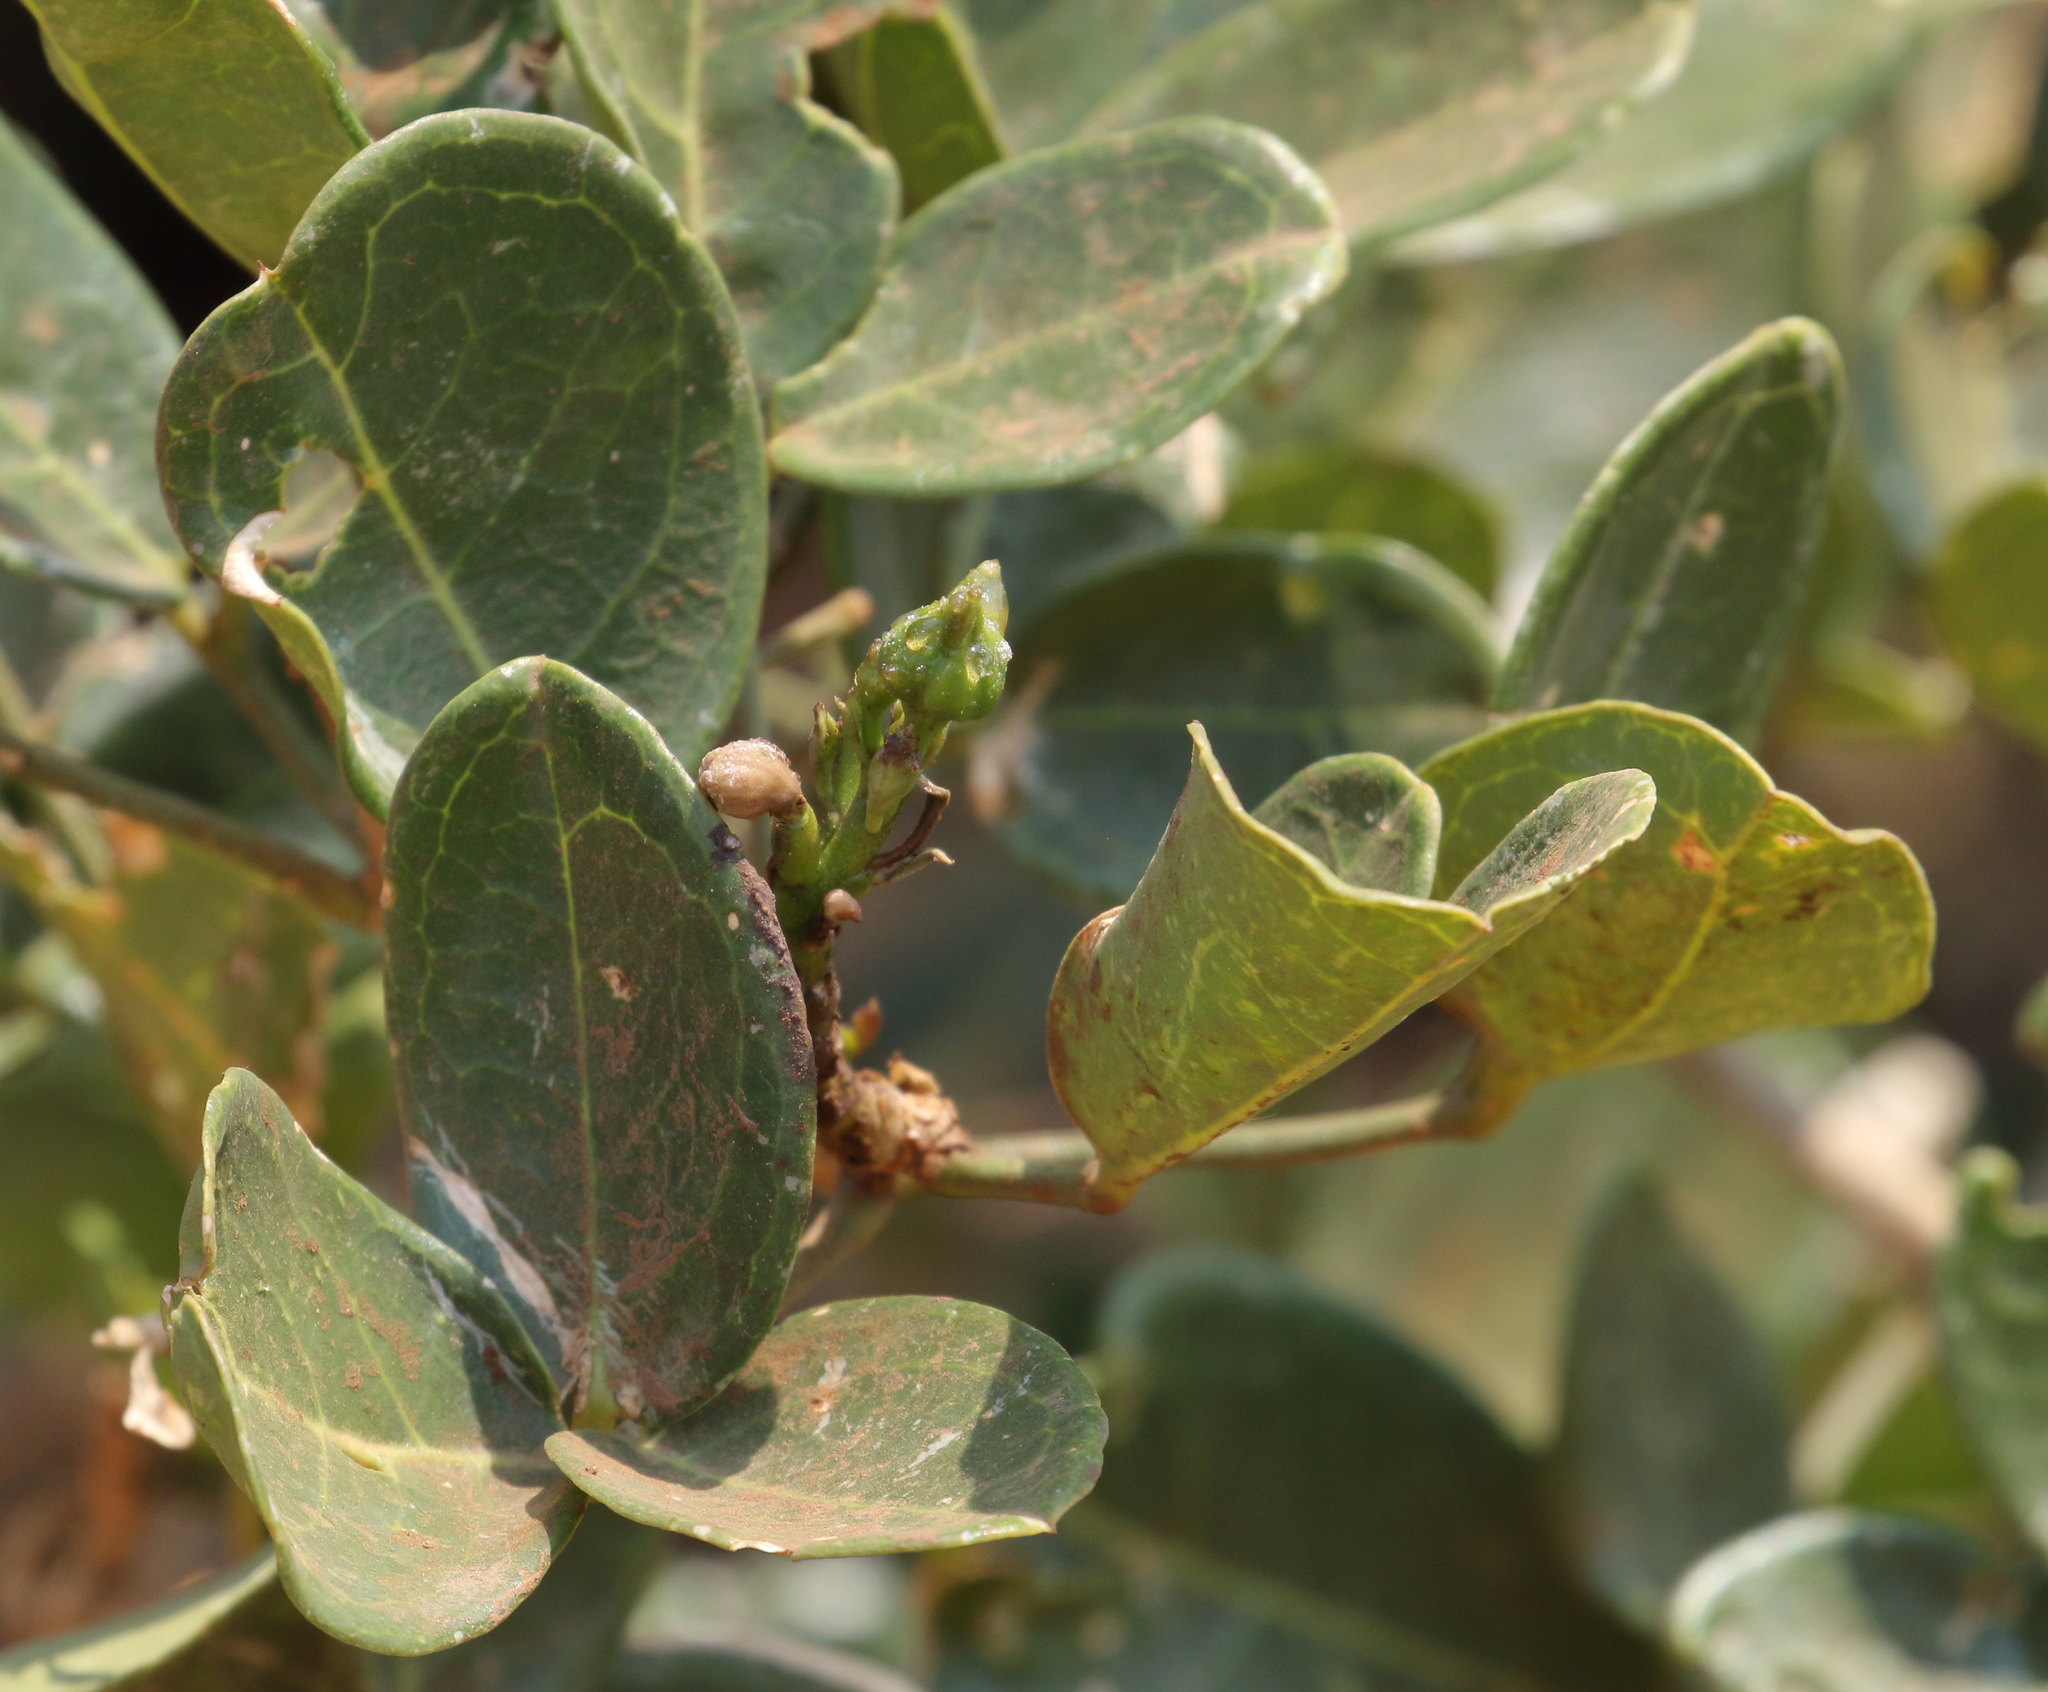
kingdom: Plantae
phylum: Tracheophyta
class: Magnoliopsida
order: Brassicales
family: Capparaceae
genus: Thilachium
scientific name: Thilachium africanum
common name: Cucumber bush
